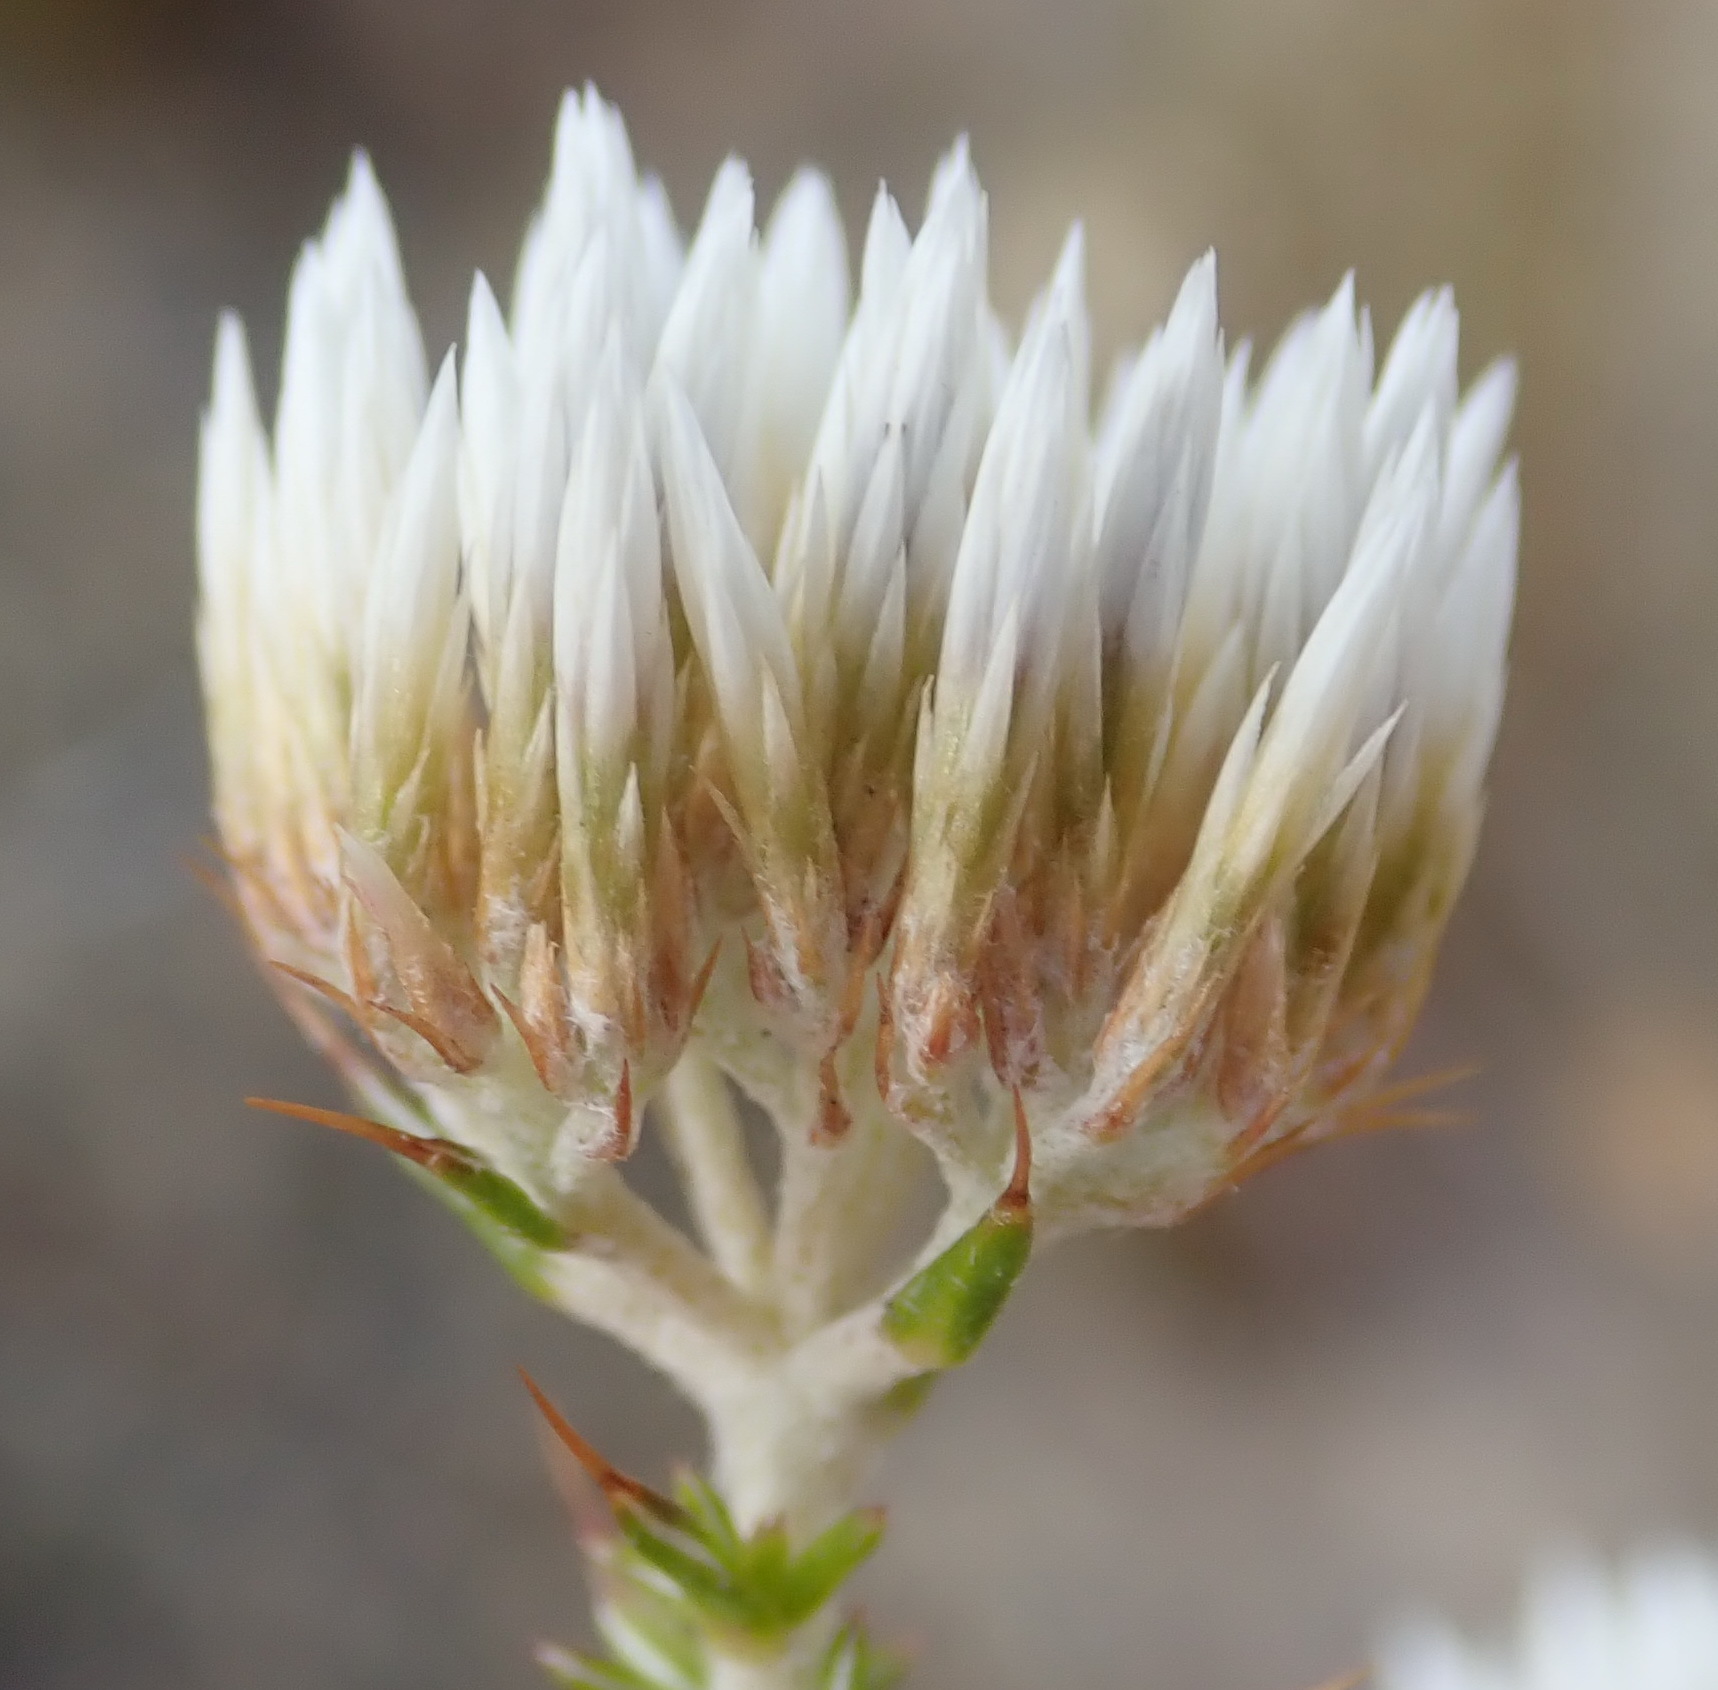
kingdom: Plantae
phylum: Tracheophyta
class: Magnoliopsida
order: Asterales
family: Asteraceae
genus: Metalasia
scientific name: Metalasia acuta
